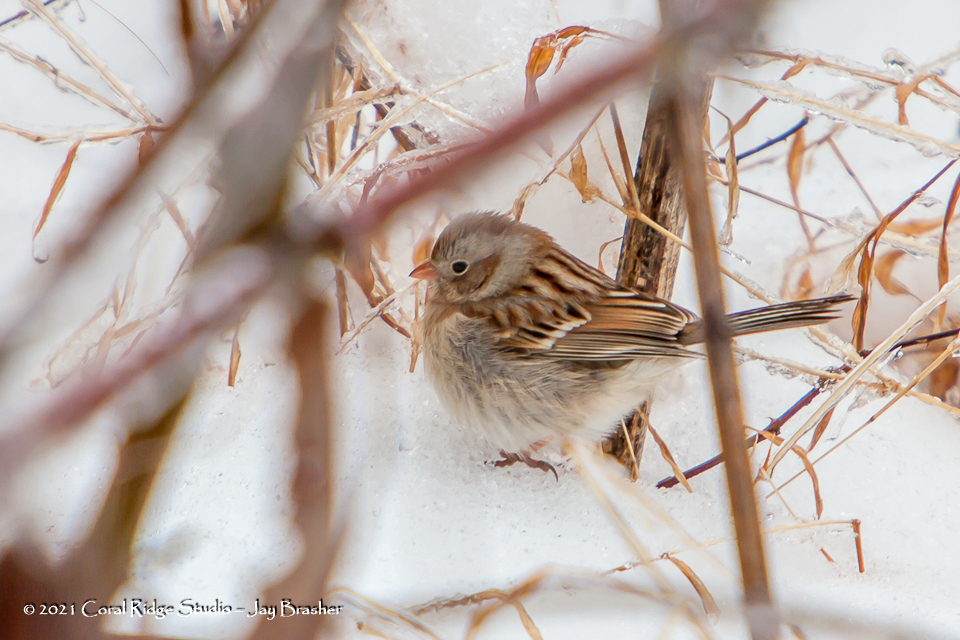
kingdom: Animalia
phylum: Chordata
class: Aves
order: Passeriformes
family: Passerellidae
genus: Spizella
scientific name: Spizella pusilla
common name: Field sparrow
